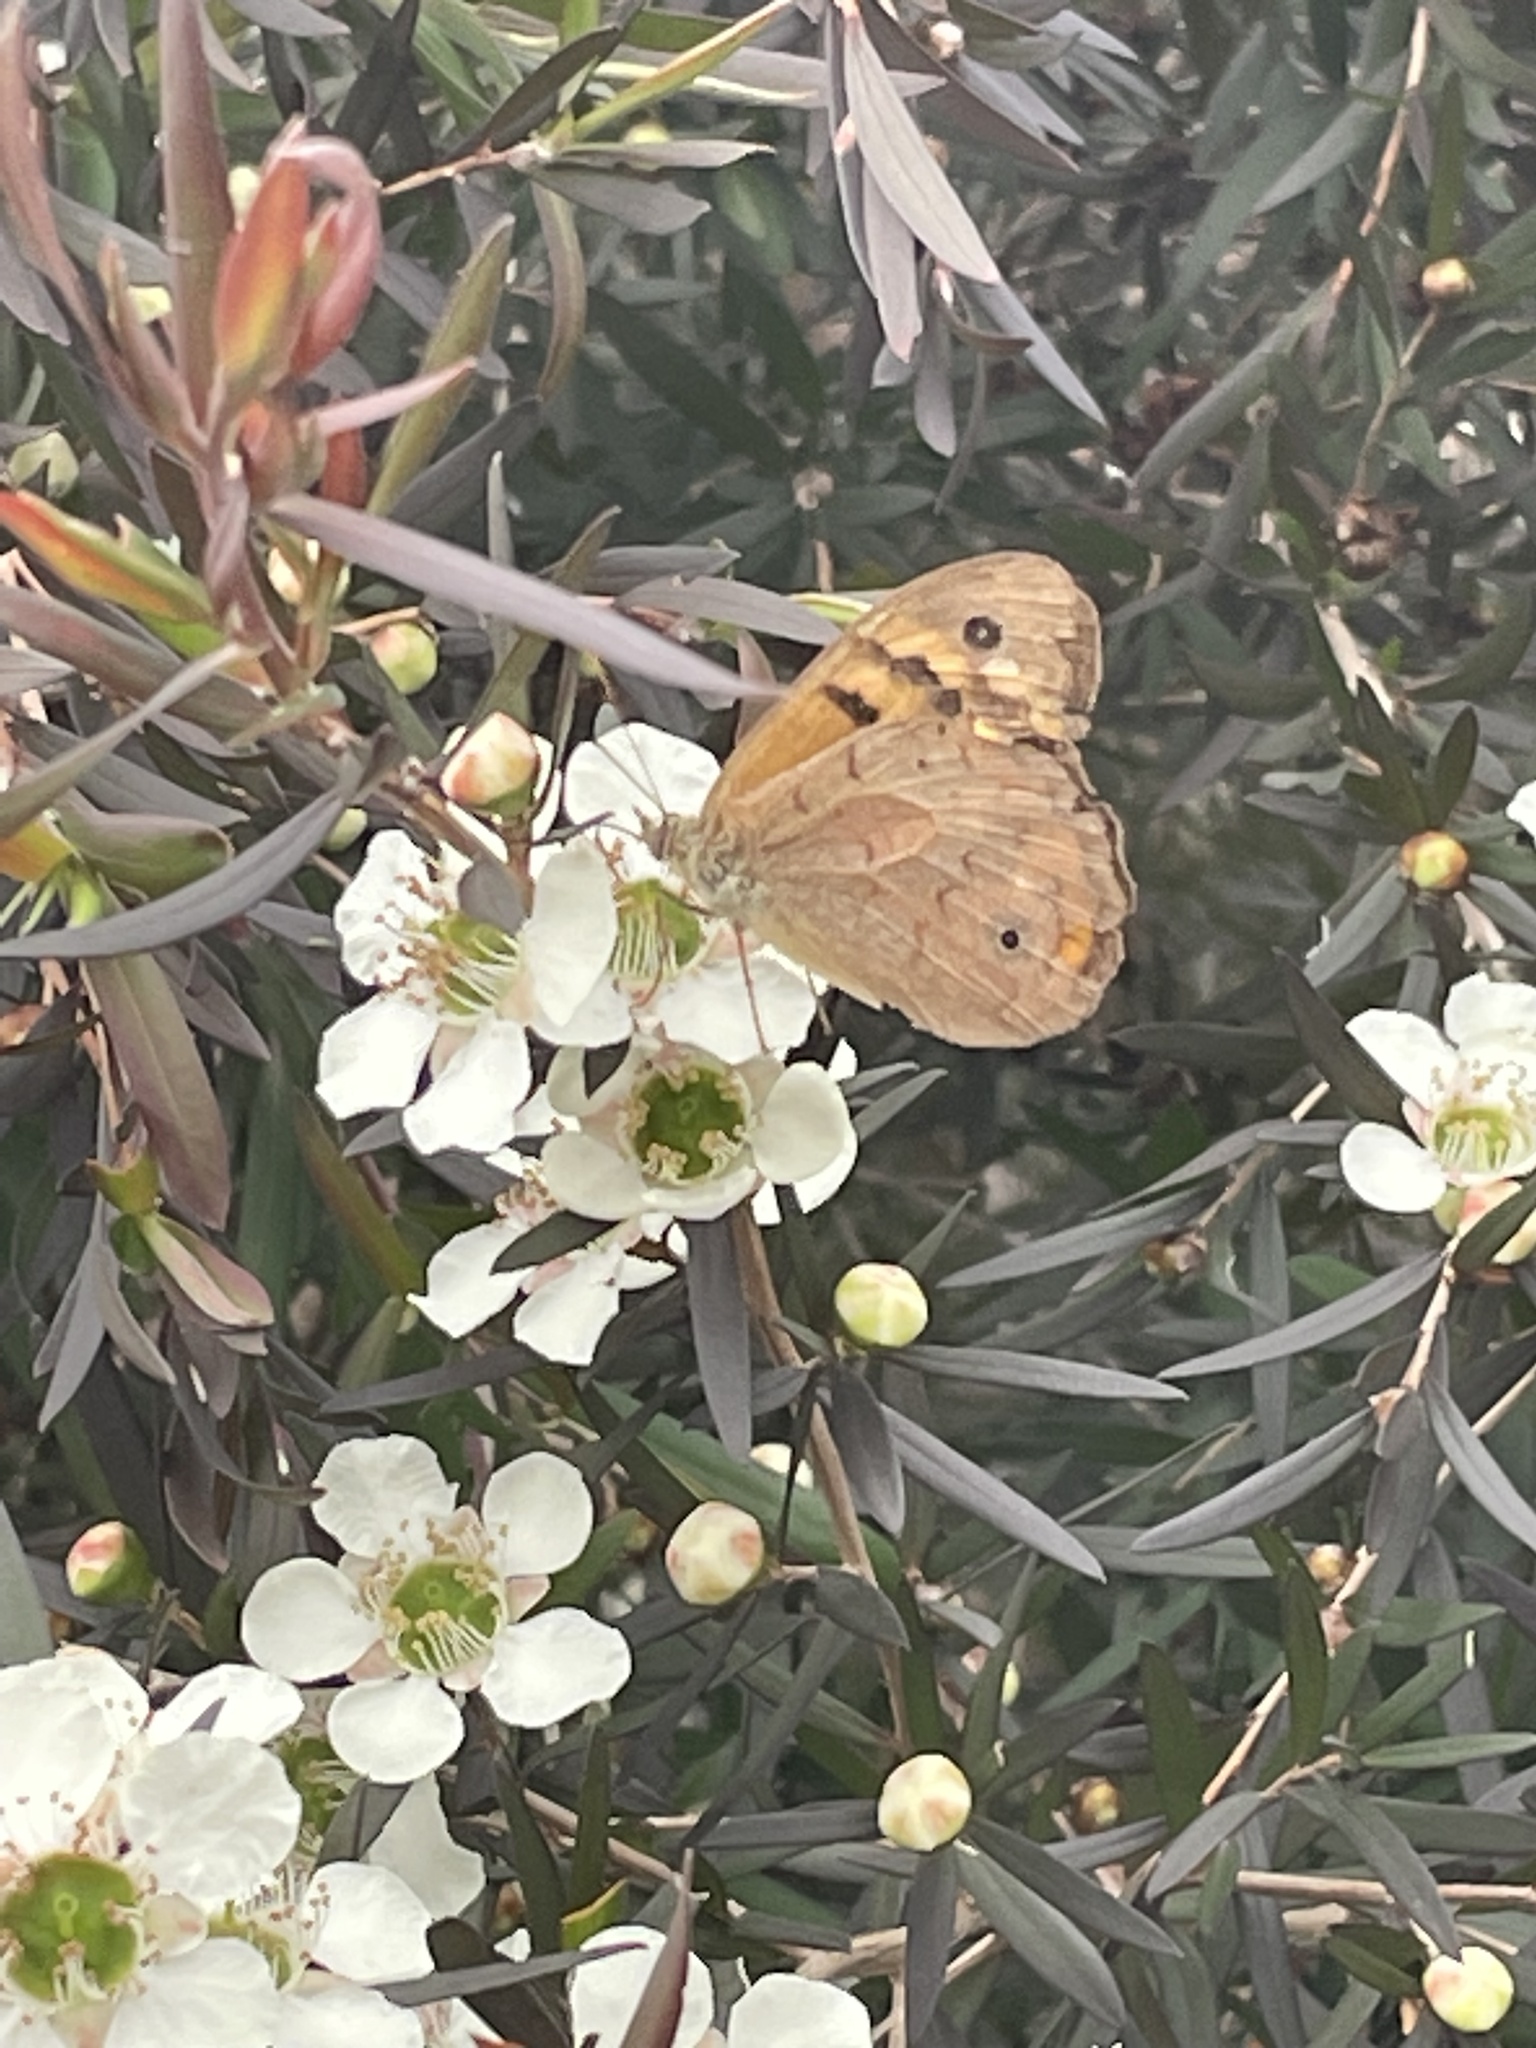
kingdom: Animalia
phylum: Arthropoda
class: Insecta
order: Lepidoptera
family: Nymphalidae
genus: Heteronympha
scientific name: Heteronympha merope
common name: Common brown
